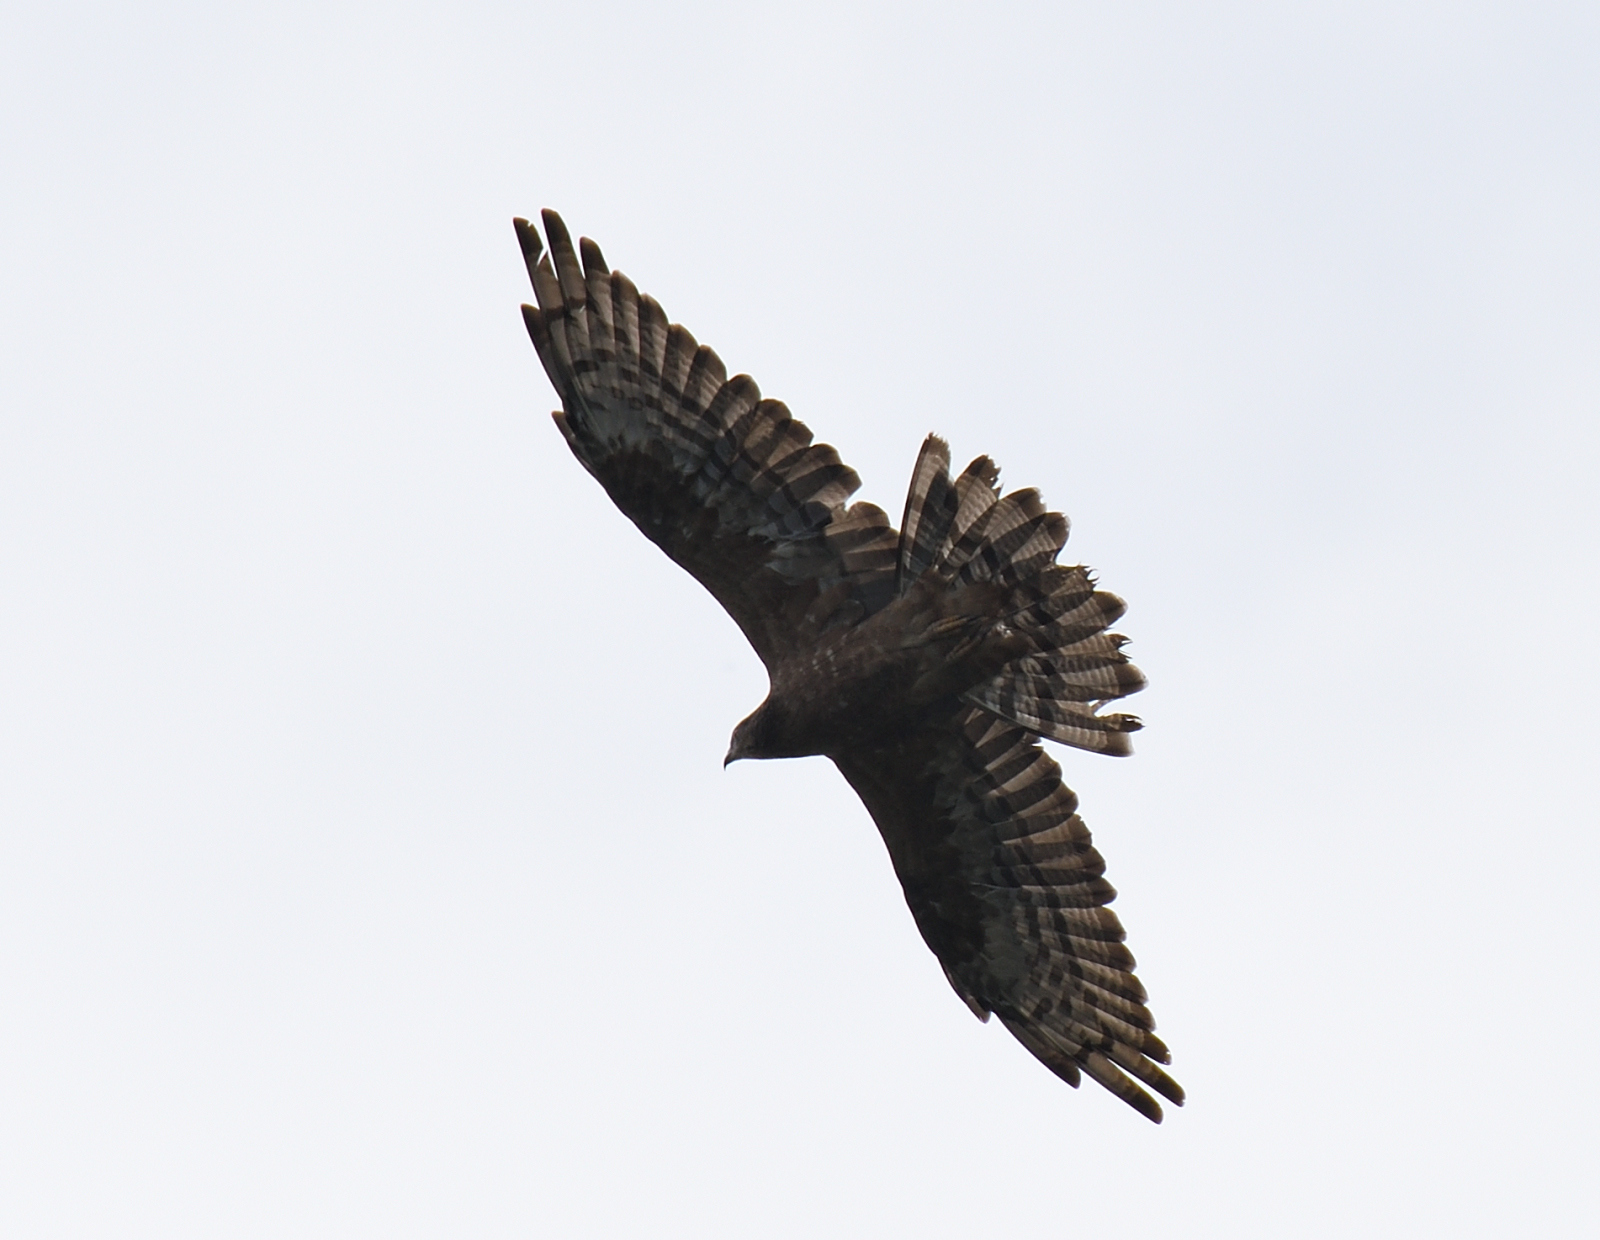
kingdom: Animalia
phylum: Chordata
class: Aves
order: Accipitriformes
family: Accipitridae
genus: Pernis
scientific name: Pernis ptilorhynchus
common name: Crested honey buzzard
